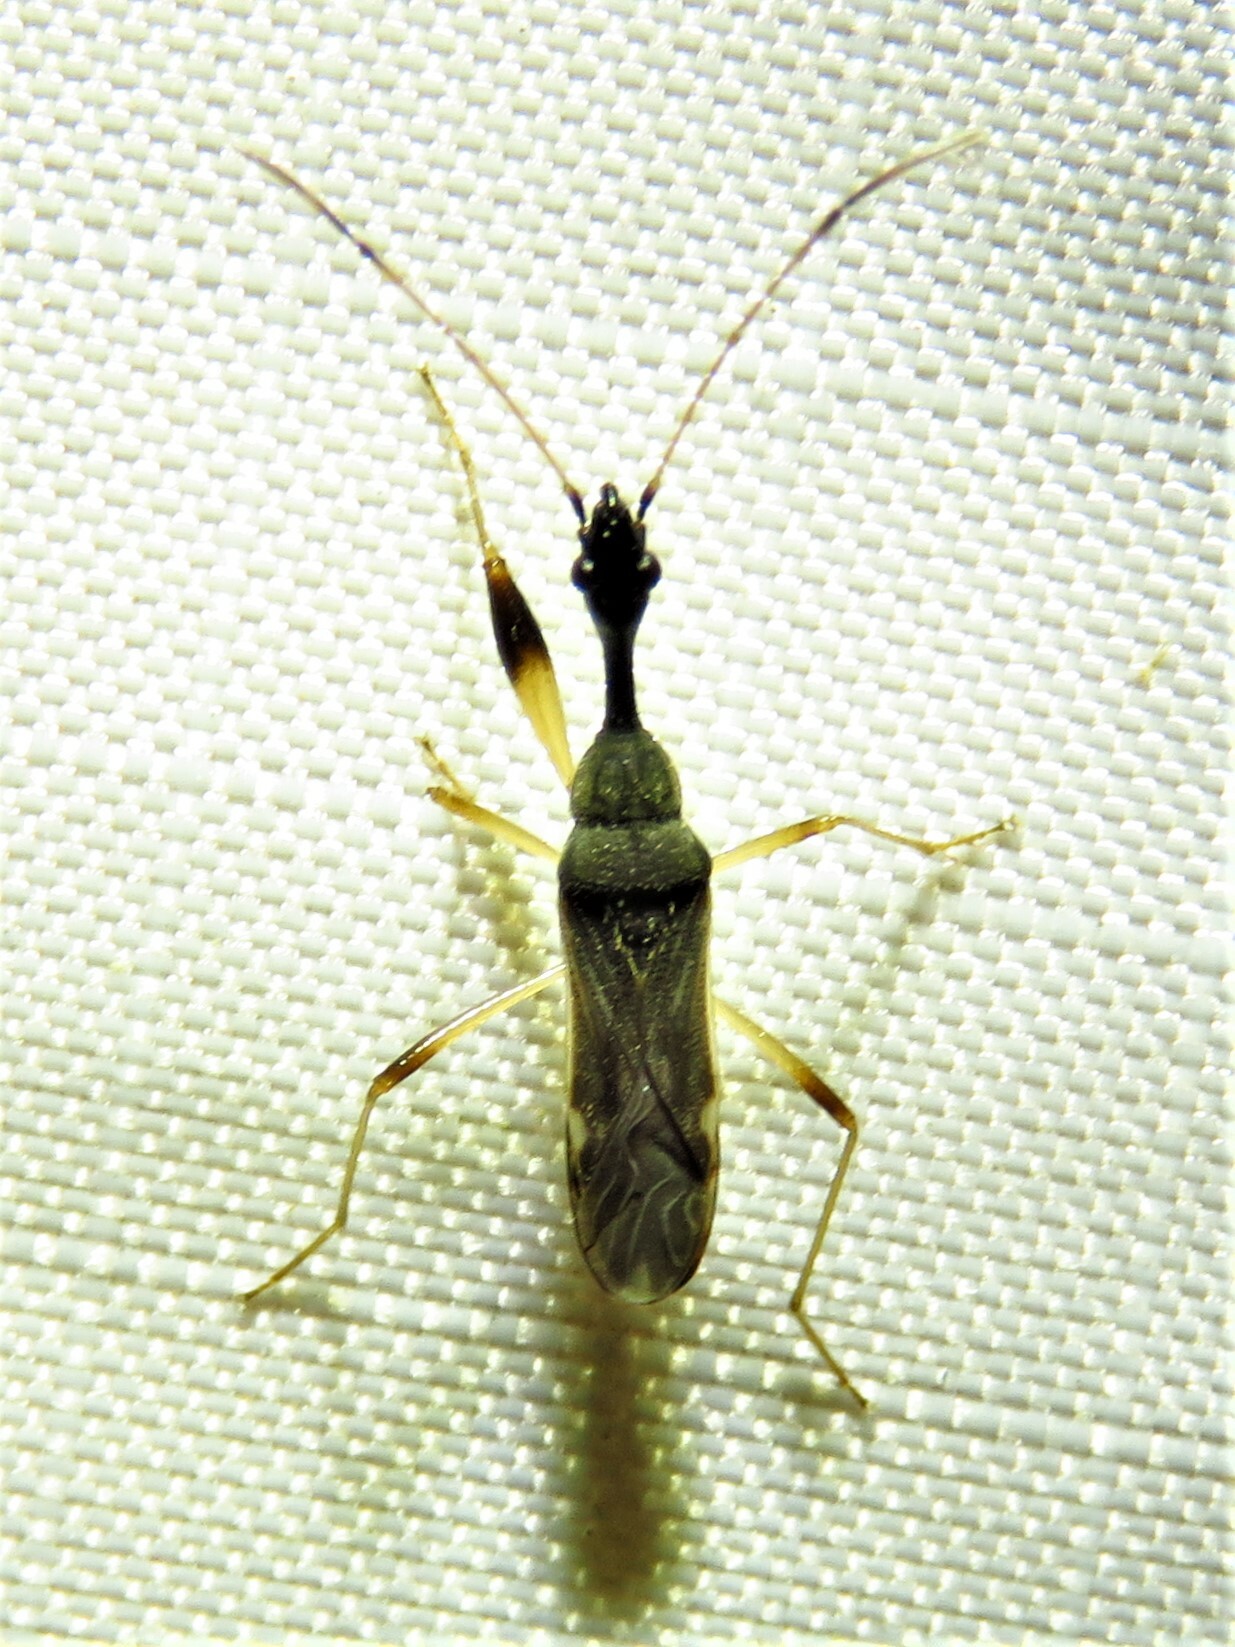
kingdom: Animalia
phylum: Arthropoda
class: Insecta
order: Hemiptera
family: Rhyparochromidae
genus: Myodocha
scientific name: Myodocha serripes
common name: Long-necked seed bug
